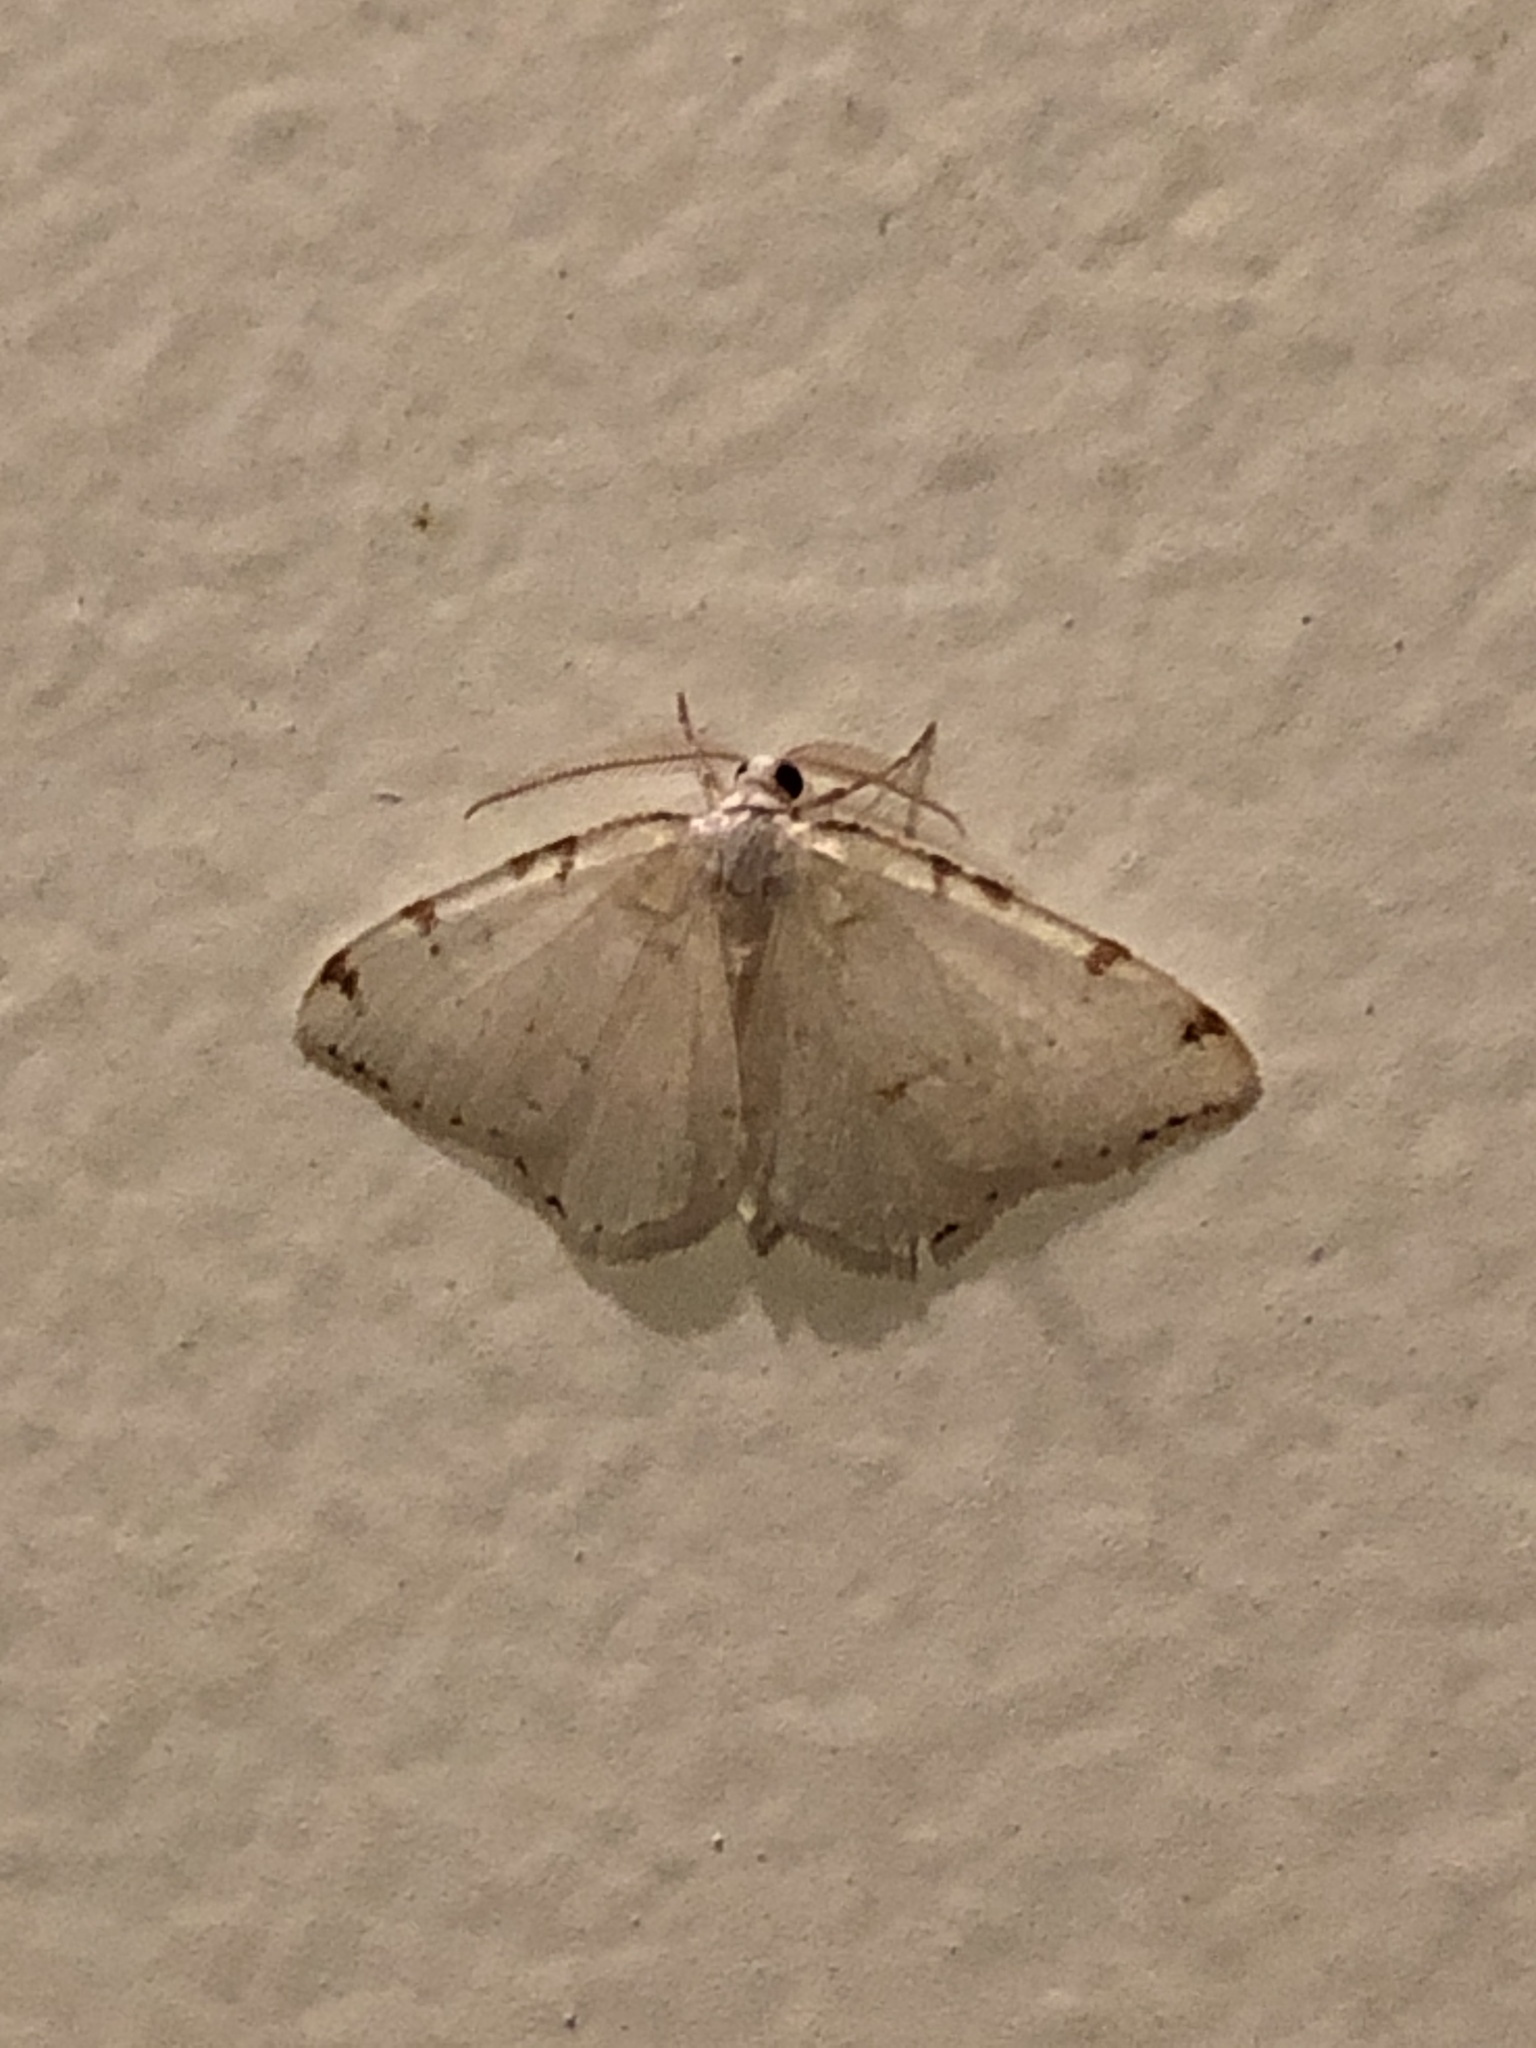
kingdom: Animalia
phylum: Arthropoda
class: Insecta
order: Lepidoptera
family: Geometridae
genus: Macaria
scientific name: Macaria pustularia
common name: Lesser maple spanworm moth
